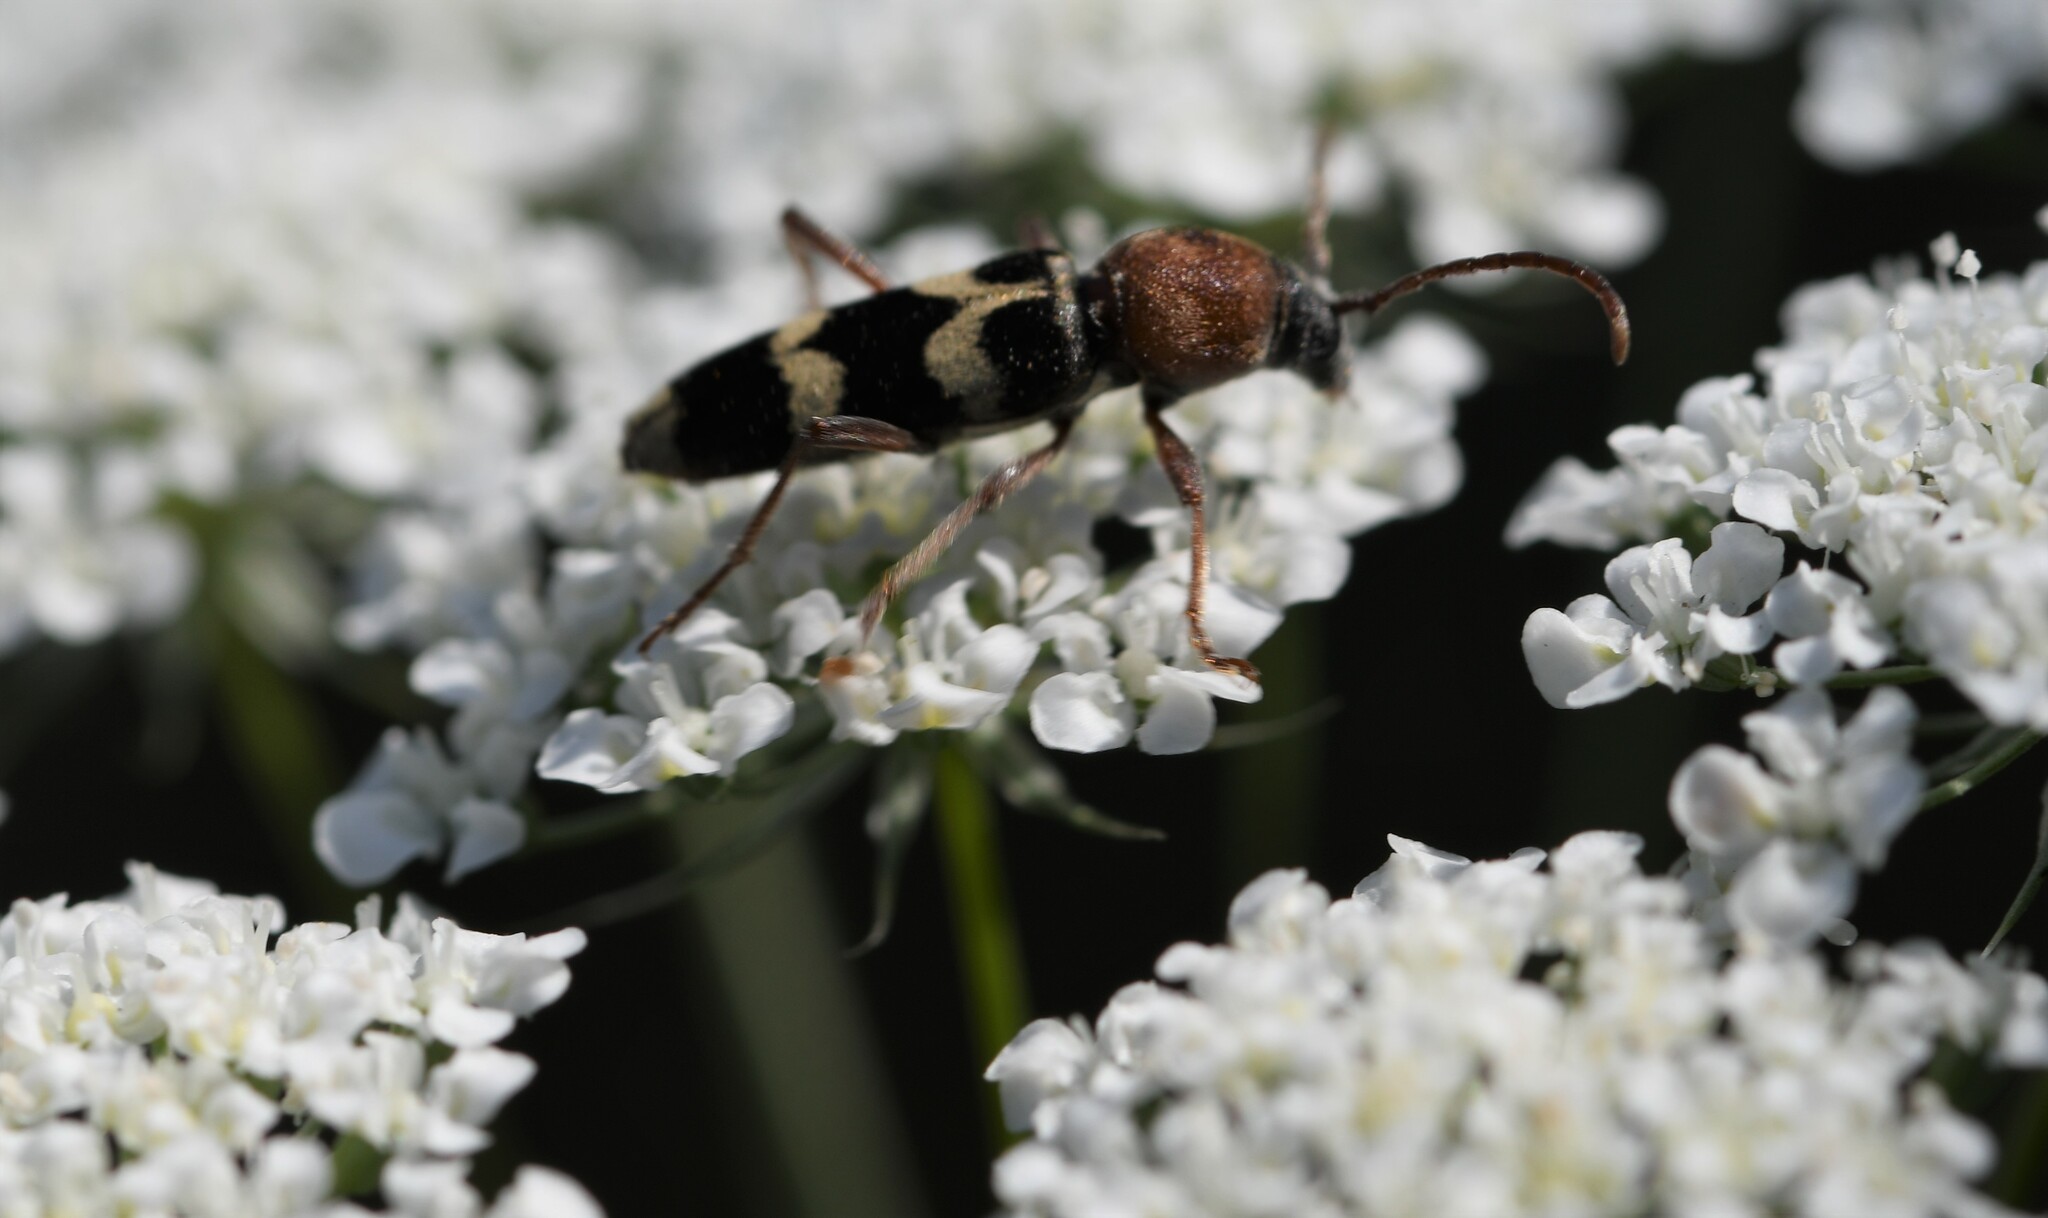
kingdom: Animalia
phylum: Arthropoda
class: Insecta
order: Coleoptera
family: Cerambycidae
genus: Chlorophorus
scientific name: Chlorophorus trifasciatus
